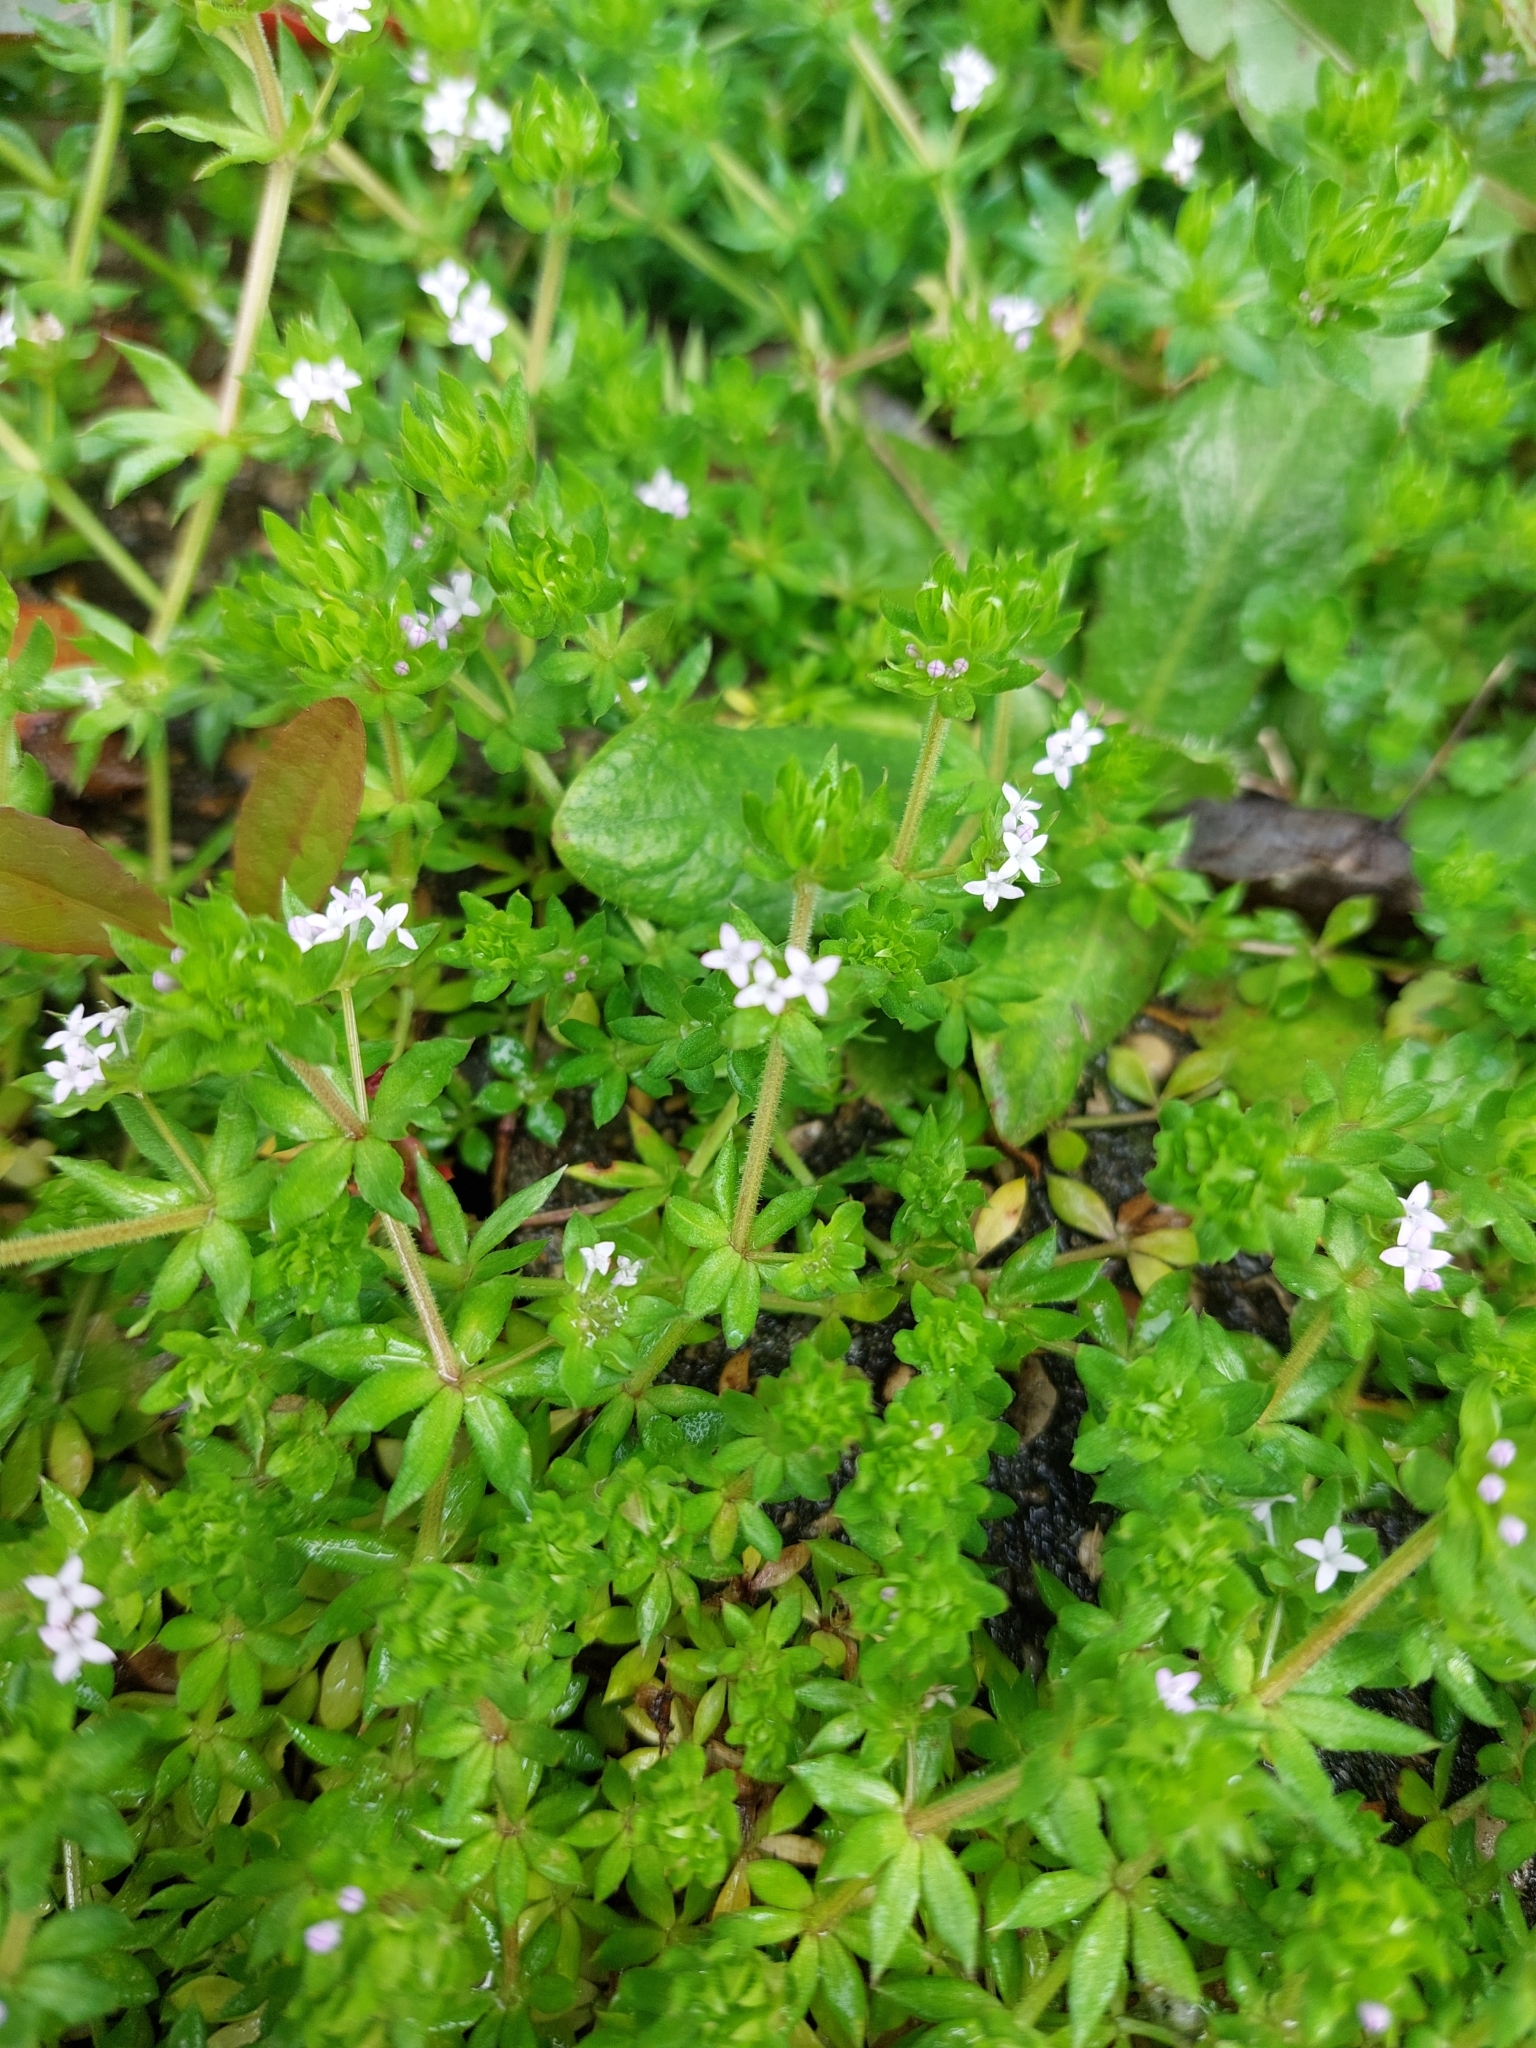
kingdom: Plantae
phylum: Tracheophyta
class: Magnoliopsida
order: Gentianales
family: Rubiaceae
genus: Sherardia
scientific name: Sherardia arvensis
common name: Field madder
